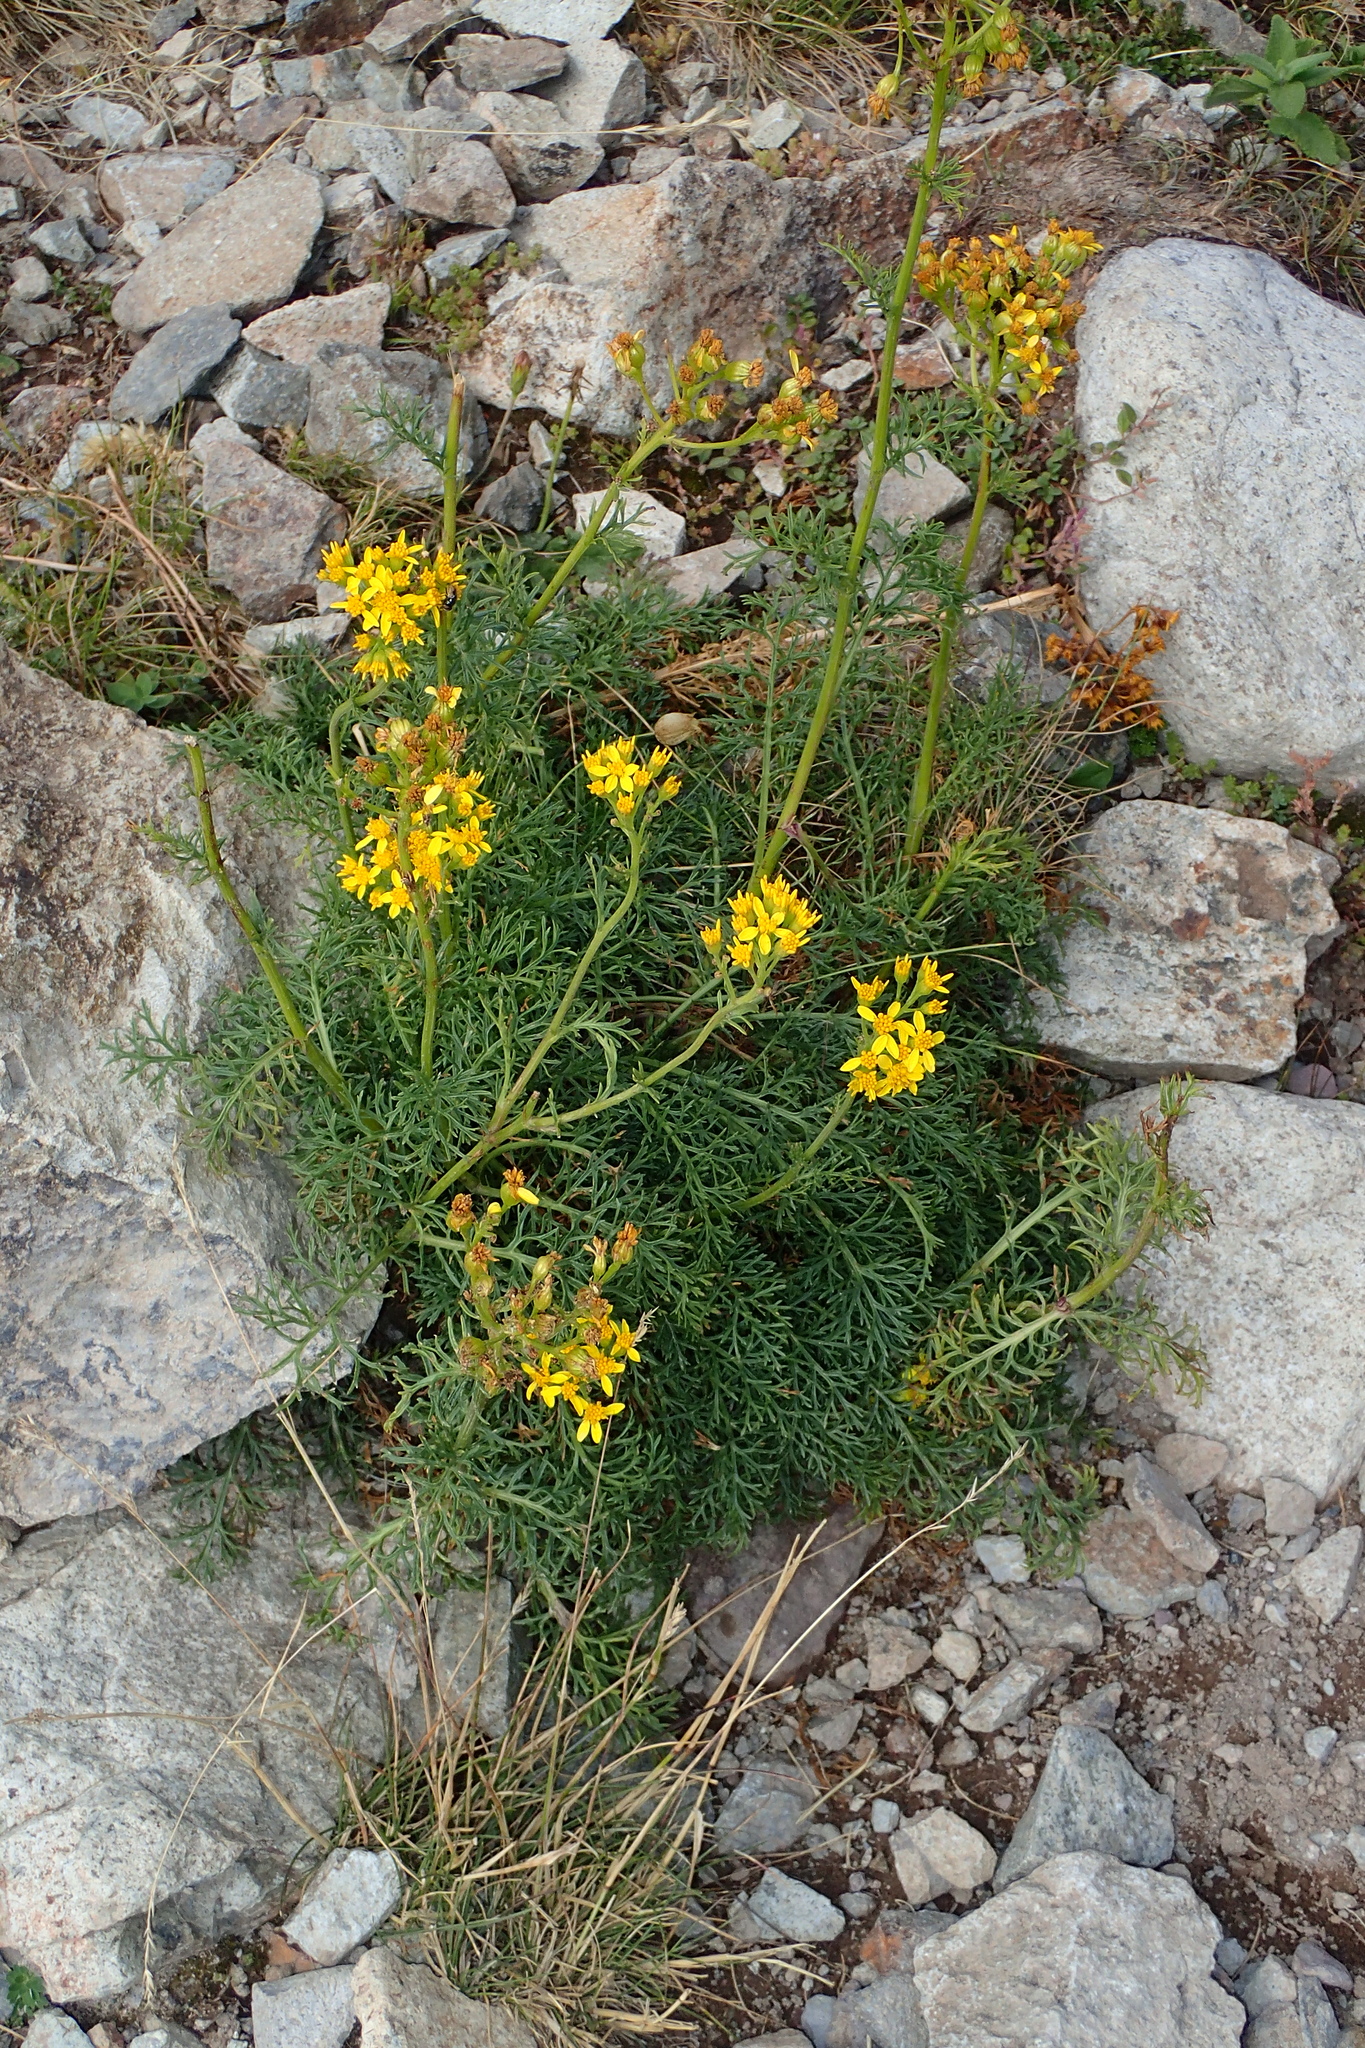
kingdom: Plantae
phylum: Tracheophyta
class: Magnoliopsida
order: Asterales
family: Asteraceae
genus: Jacobaea
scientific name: Jacobaea adonidifolia
